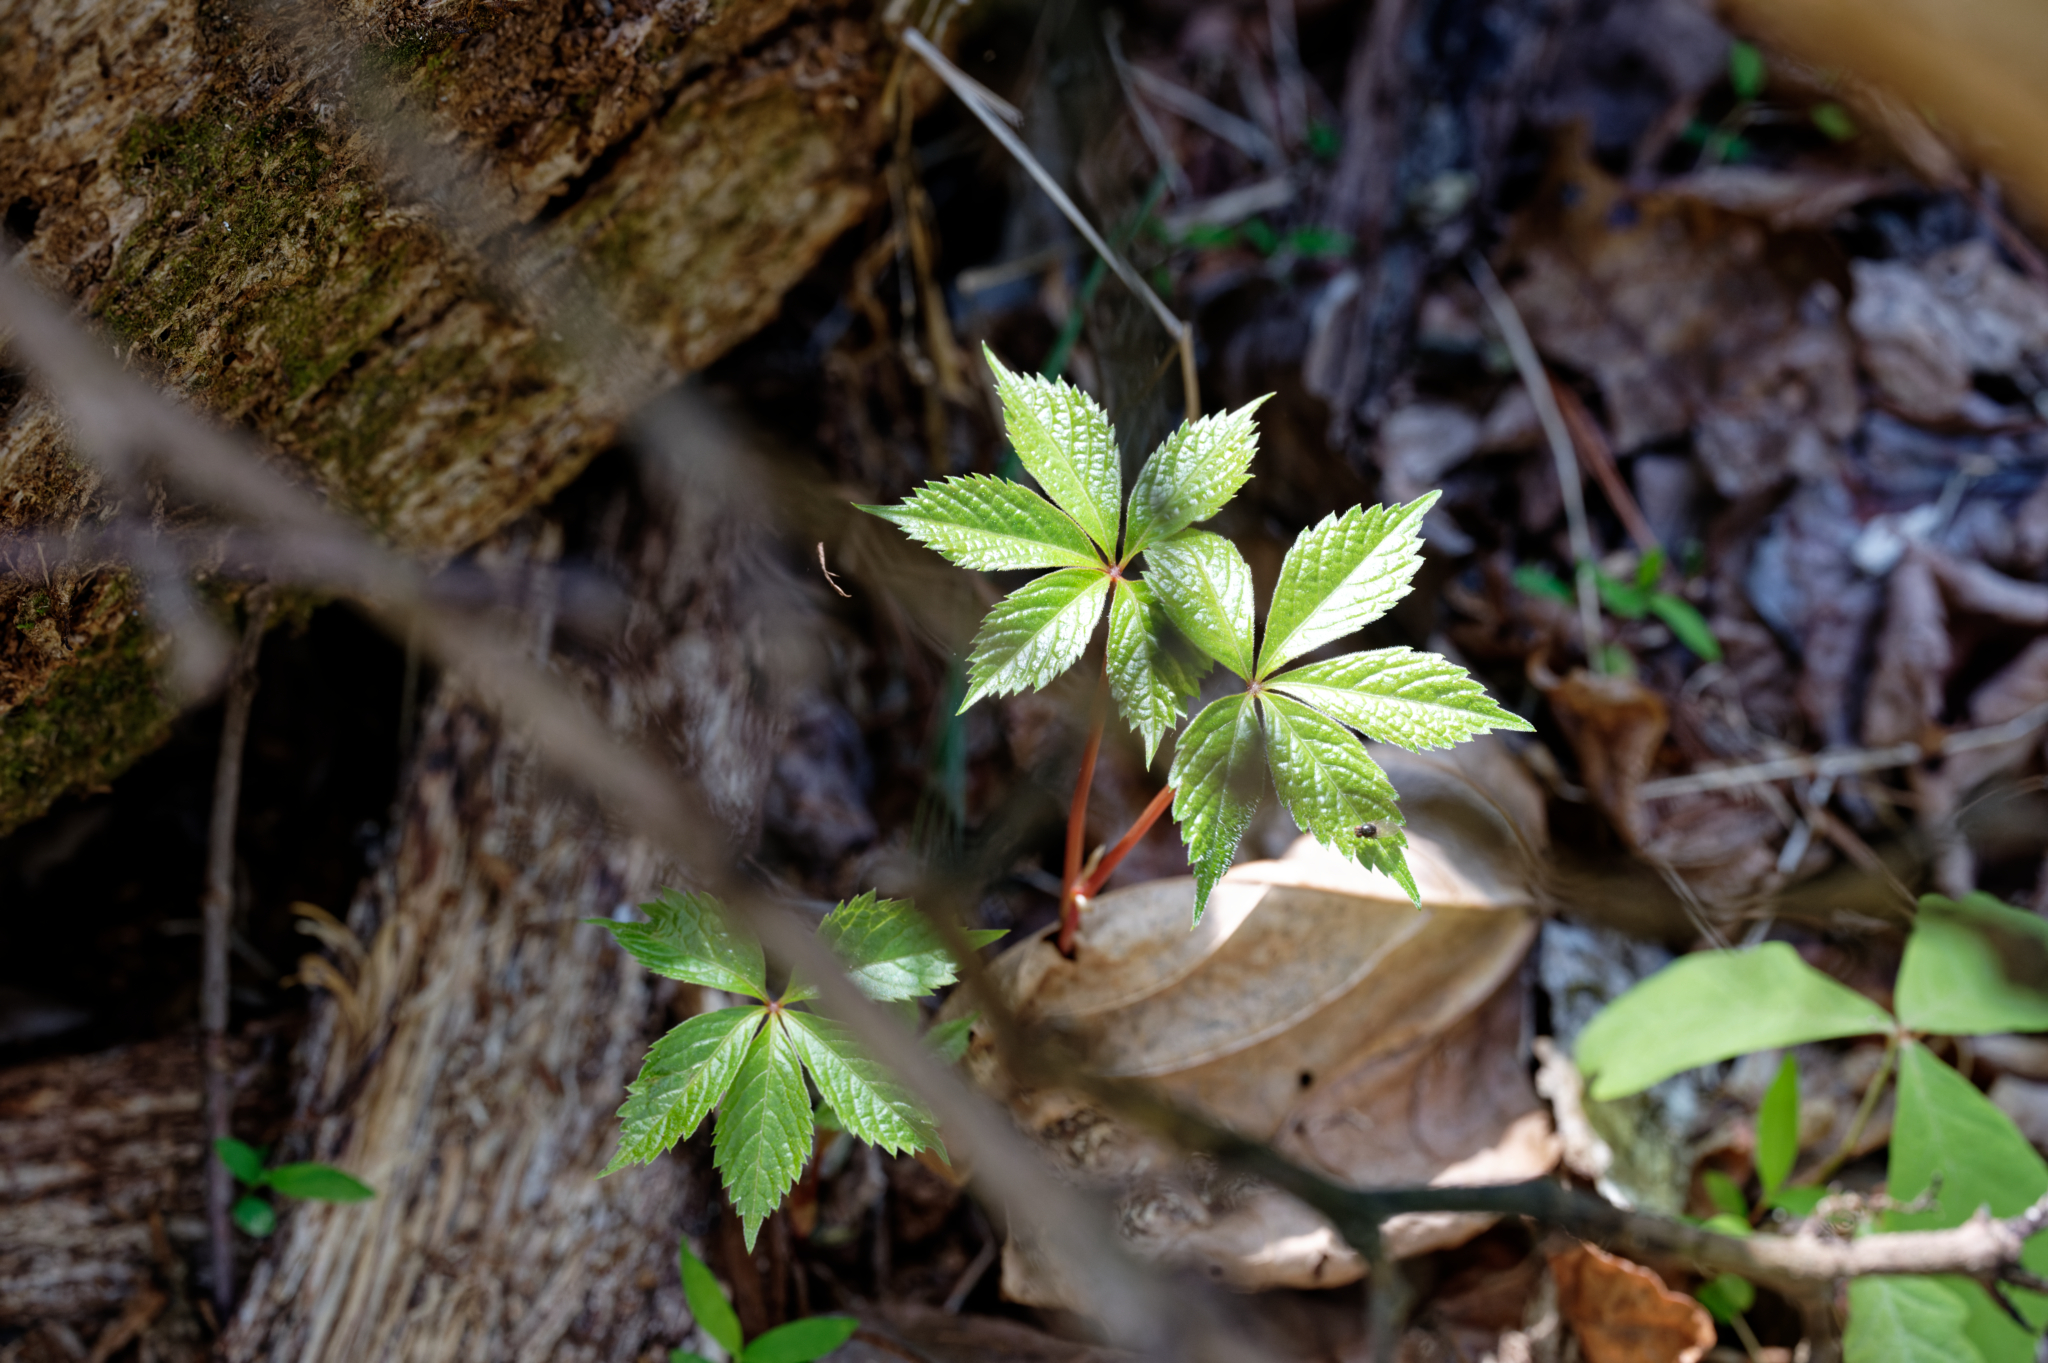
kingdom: Plantae
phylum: Tracheophyta
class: Magnoliopsida
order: Vitales
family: Vitaceae
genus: Parthenocissus
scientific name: Parthenocissus quinquefolia
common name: Virginia-creeper
